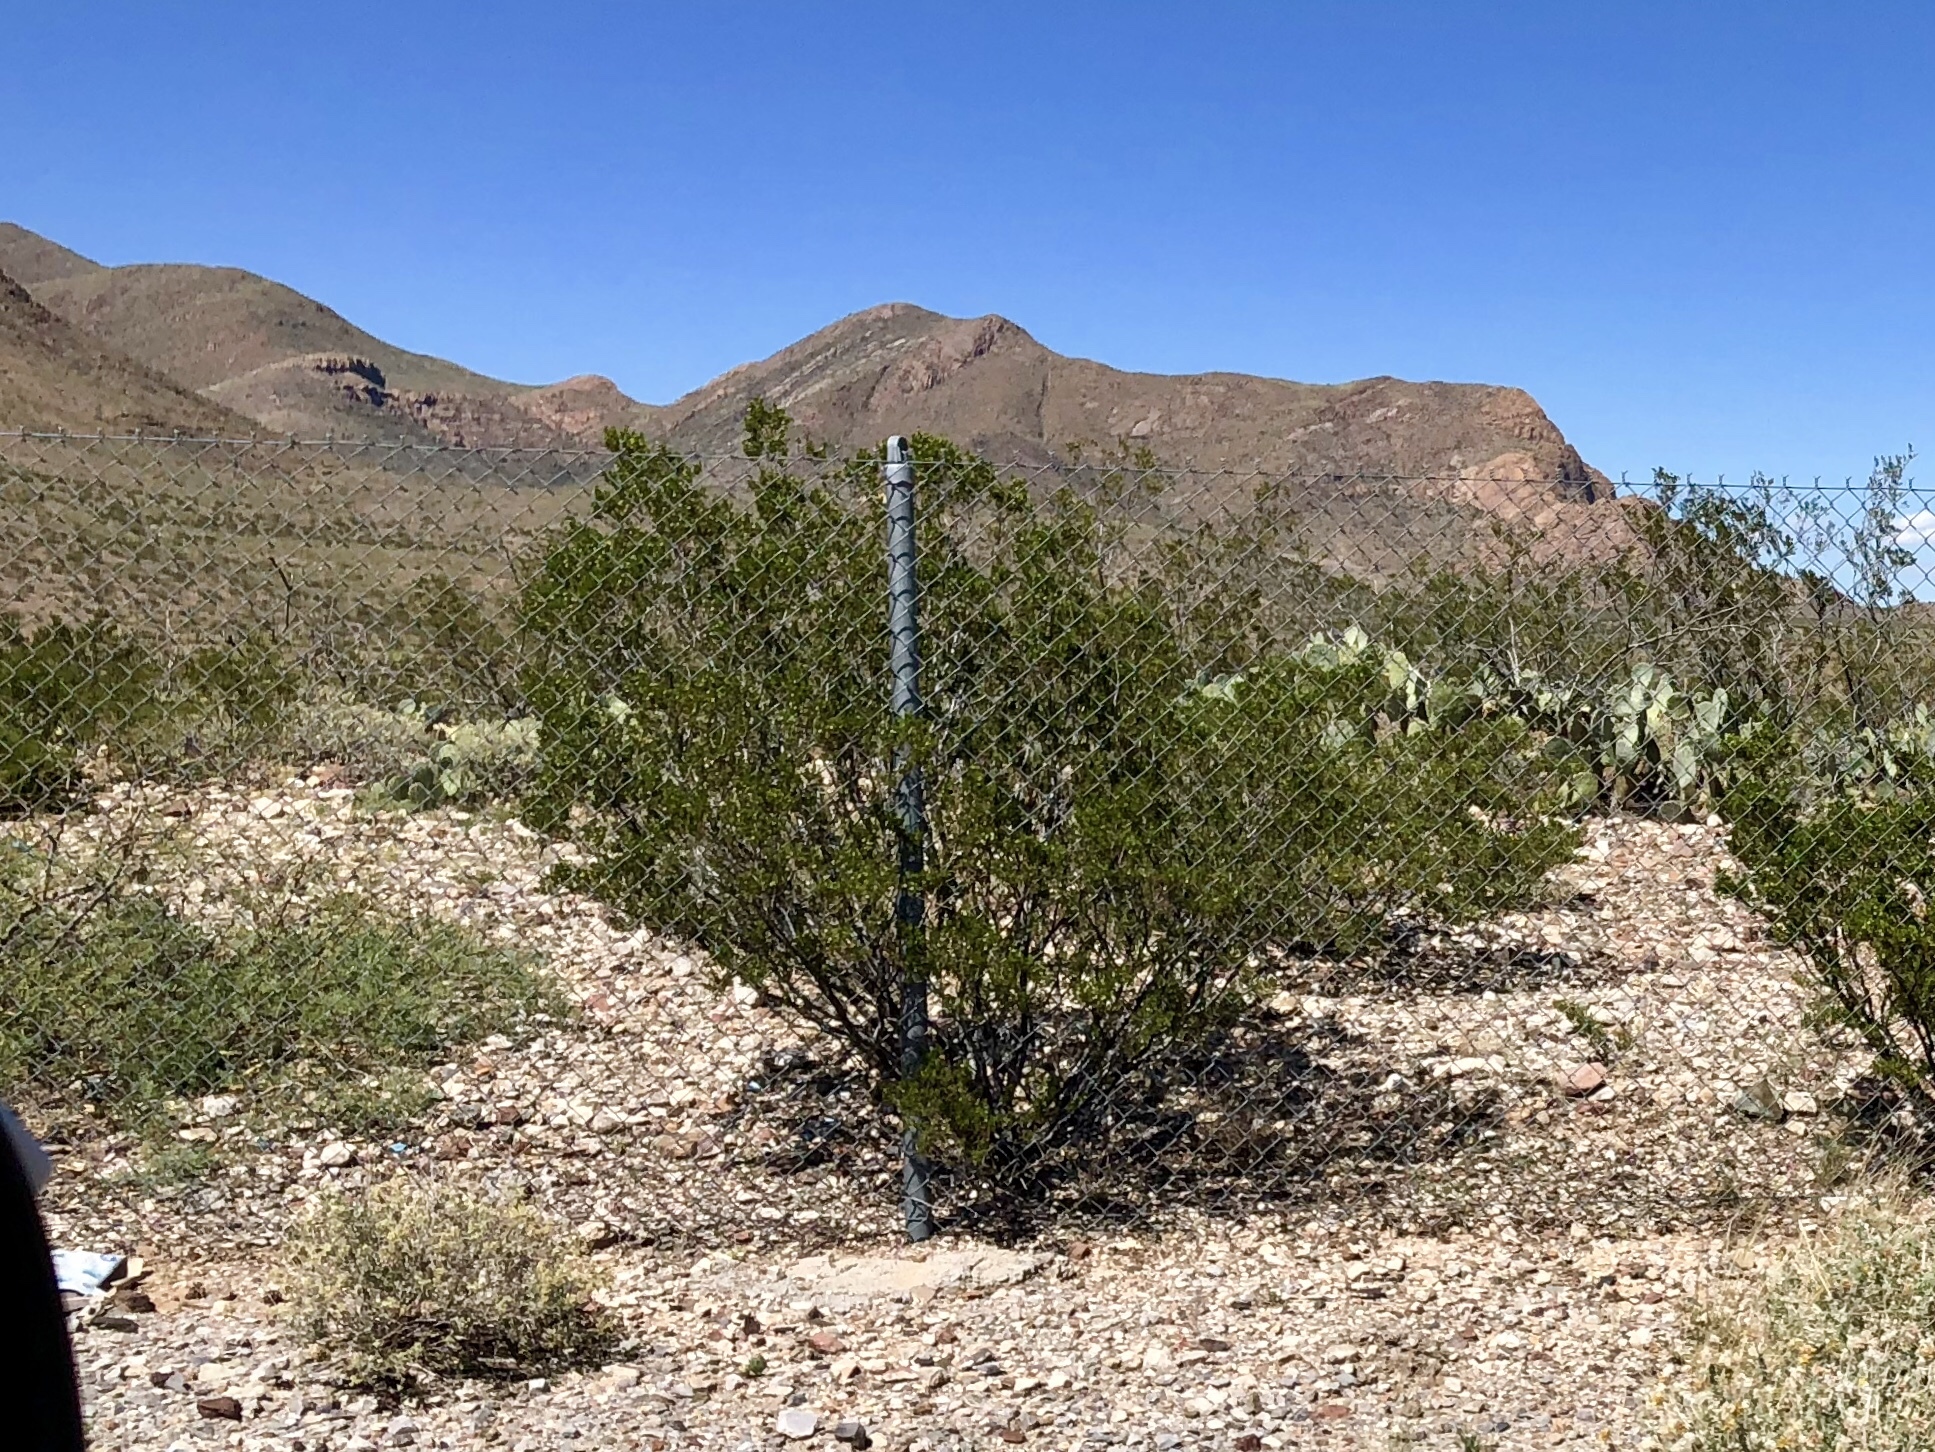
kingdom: Plantae
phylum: Tracheophyta
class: Magnoliopsida
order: Zygophyllales
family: Zygophyllaceae
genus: Larrea
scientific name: Larrea tridentata
